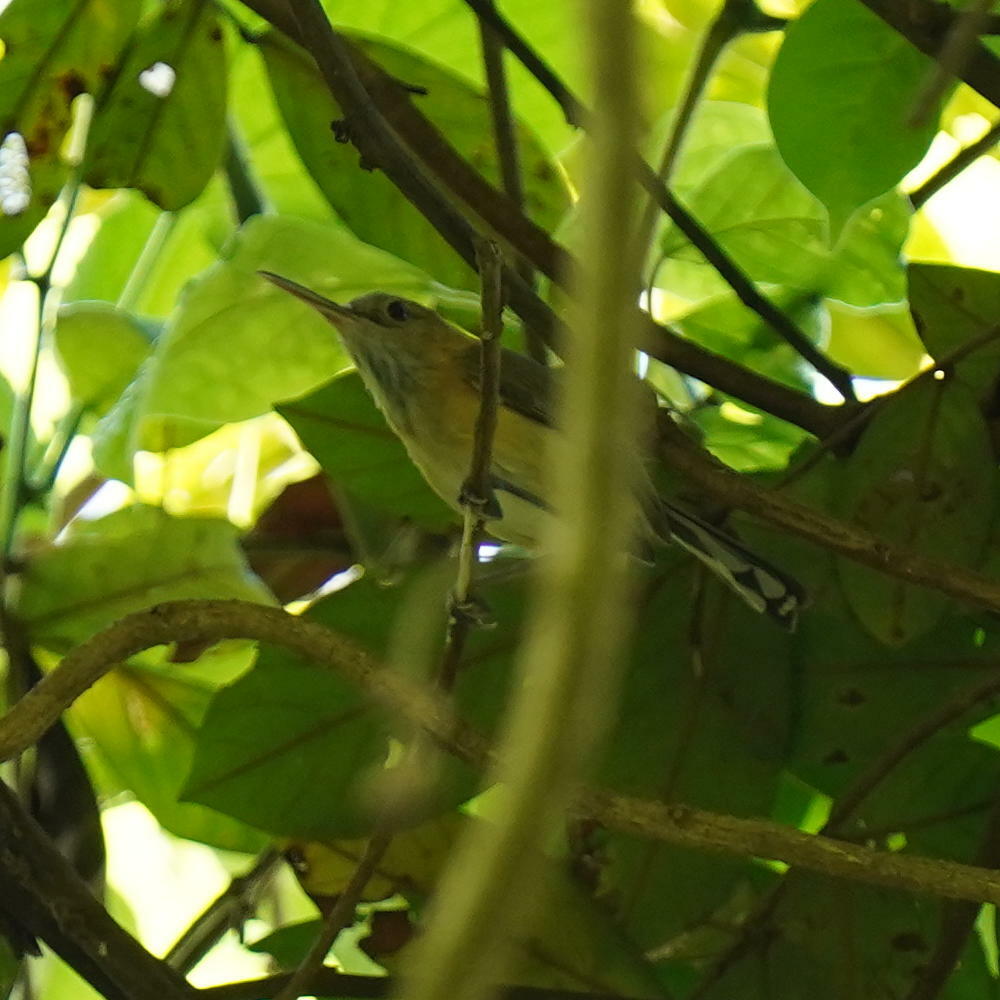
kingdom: Animalia
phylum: Chordata
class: Aves
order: Passeriformes
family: Polioptilidae
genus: Ramphocaenus
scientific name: Ramphocaenus melanurus
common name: Long-billed gnatwren
